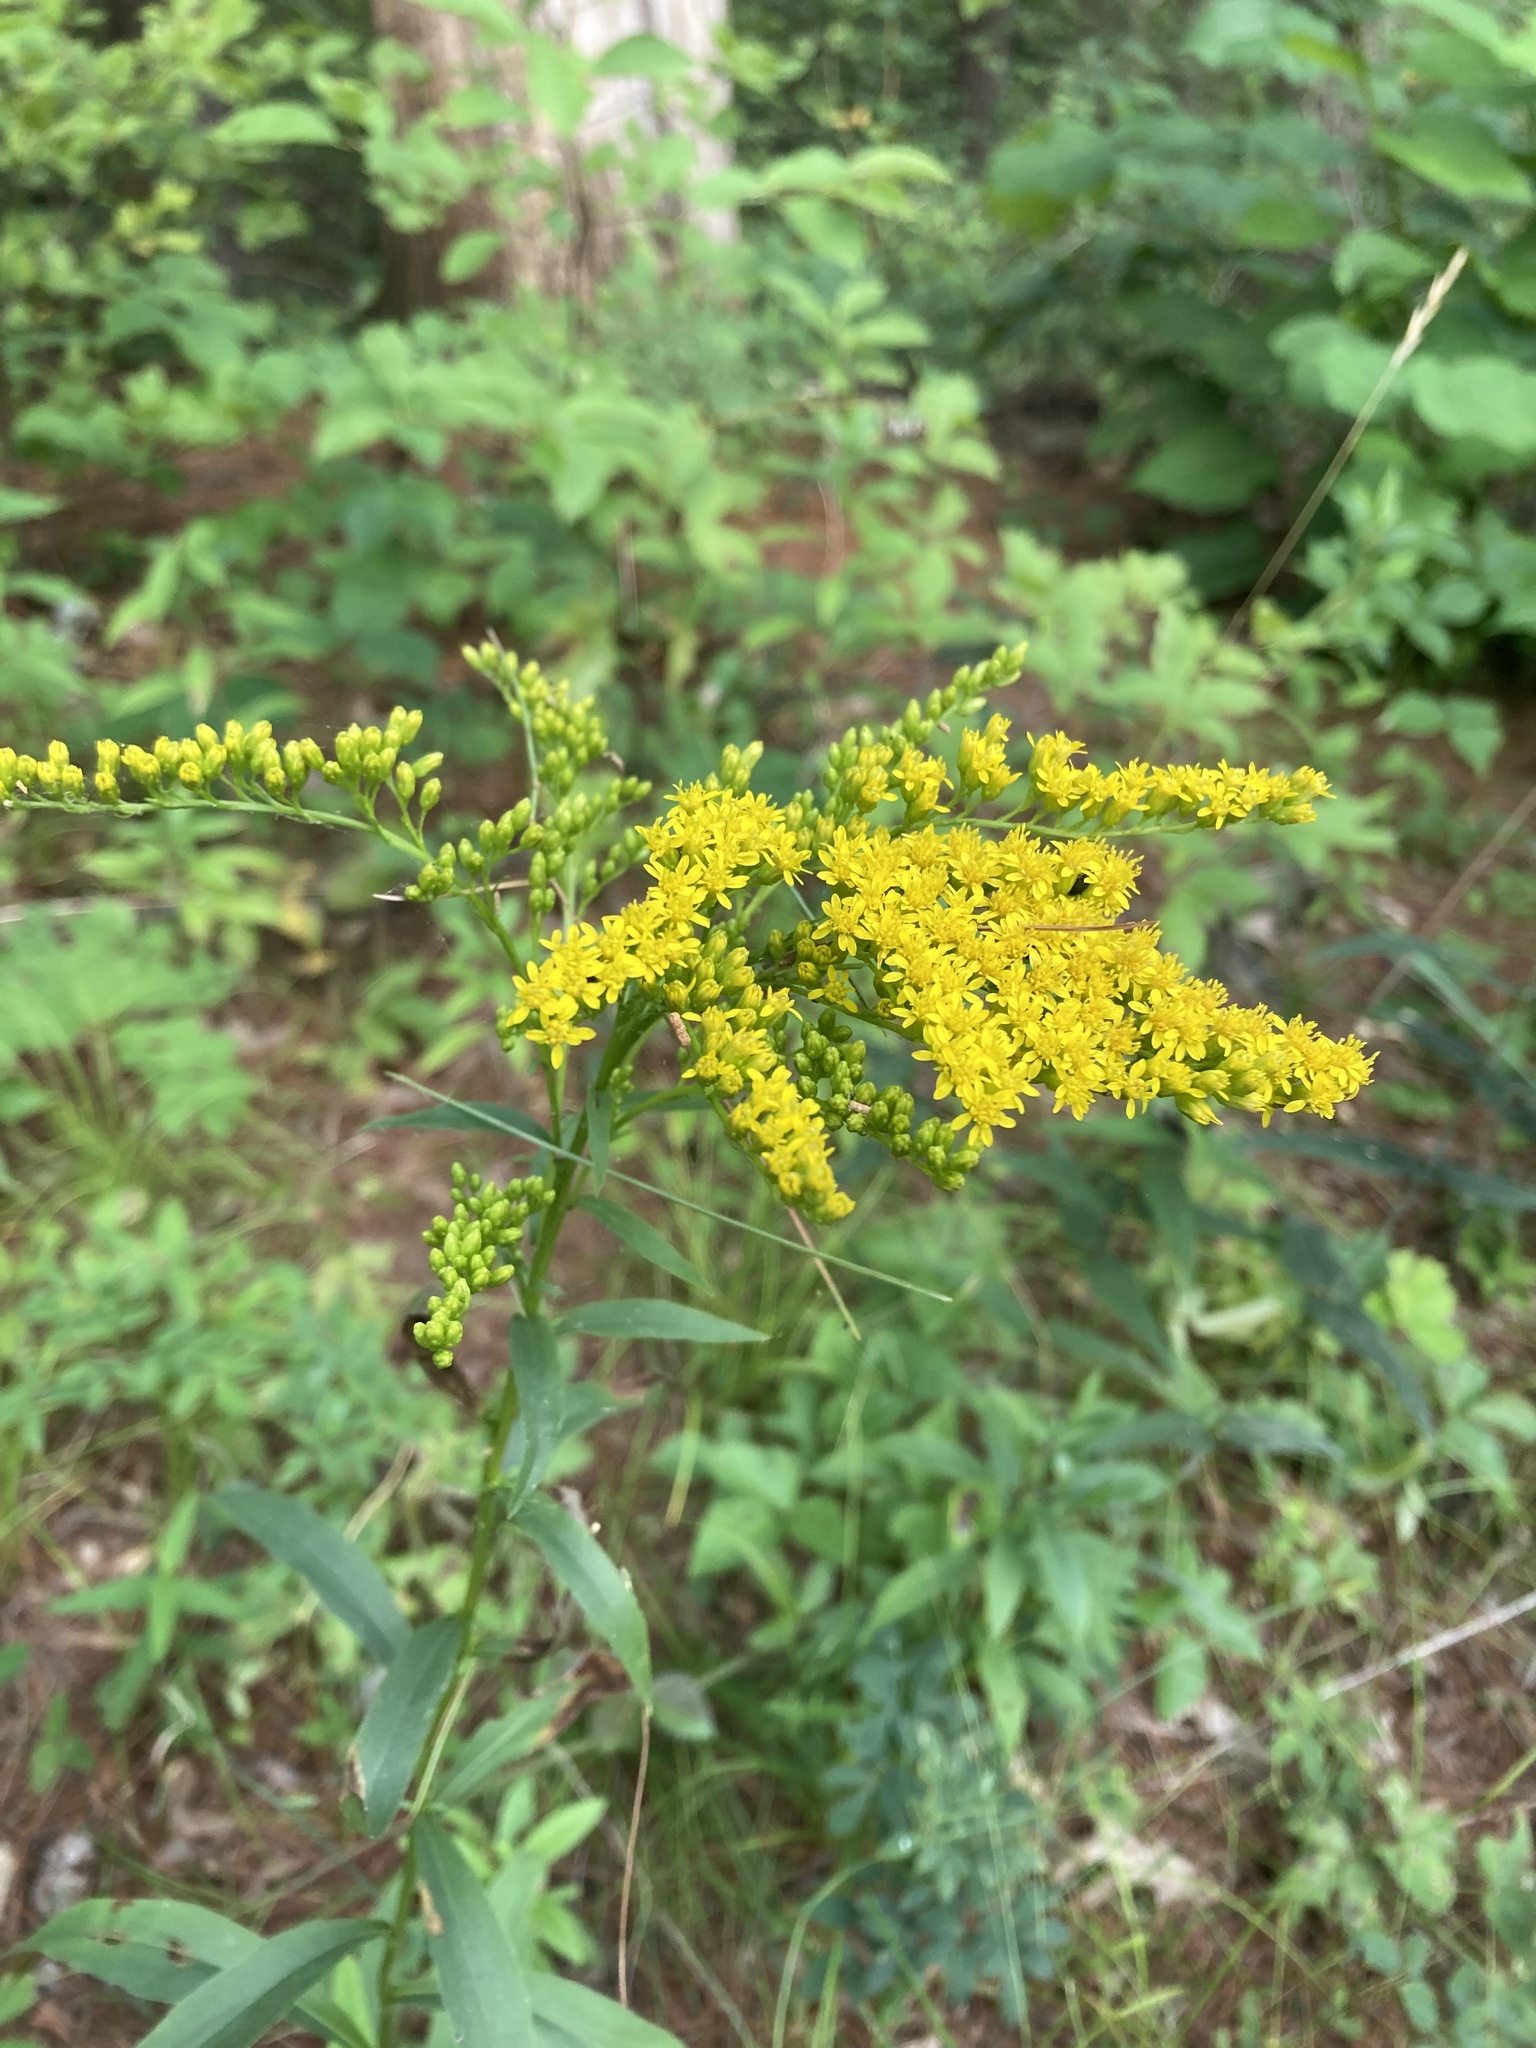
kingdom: Plantae
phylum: Tracheophyta
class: Magnoliopsida
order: Asterales
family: Asteraceae
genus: Solidago
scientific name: Solidago juncea
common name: Early goldenrod
